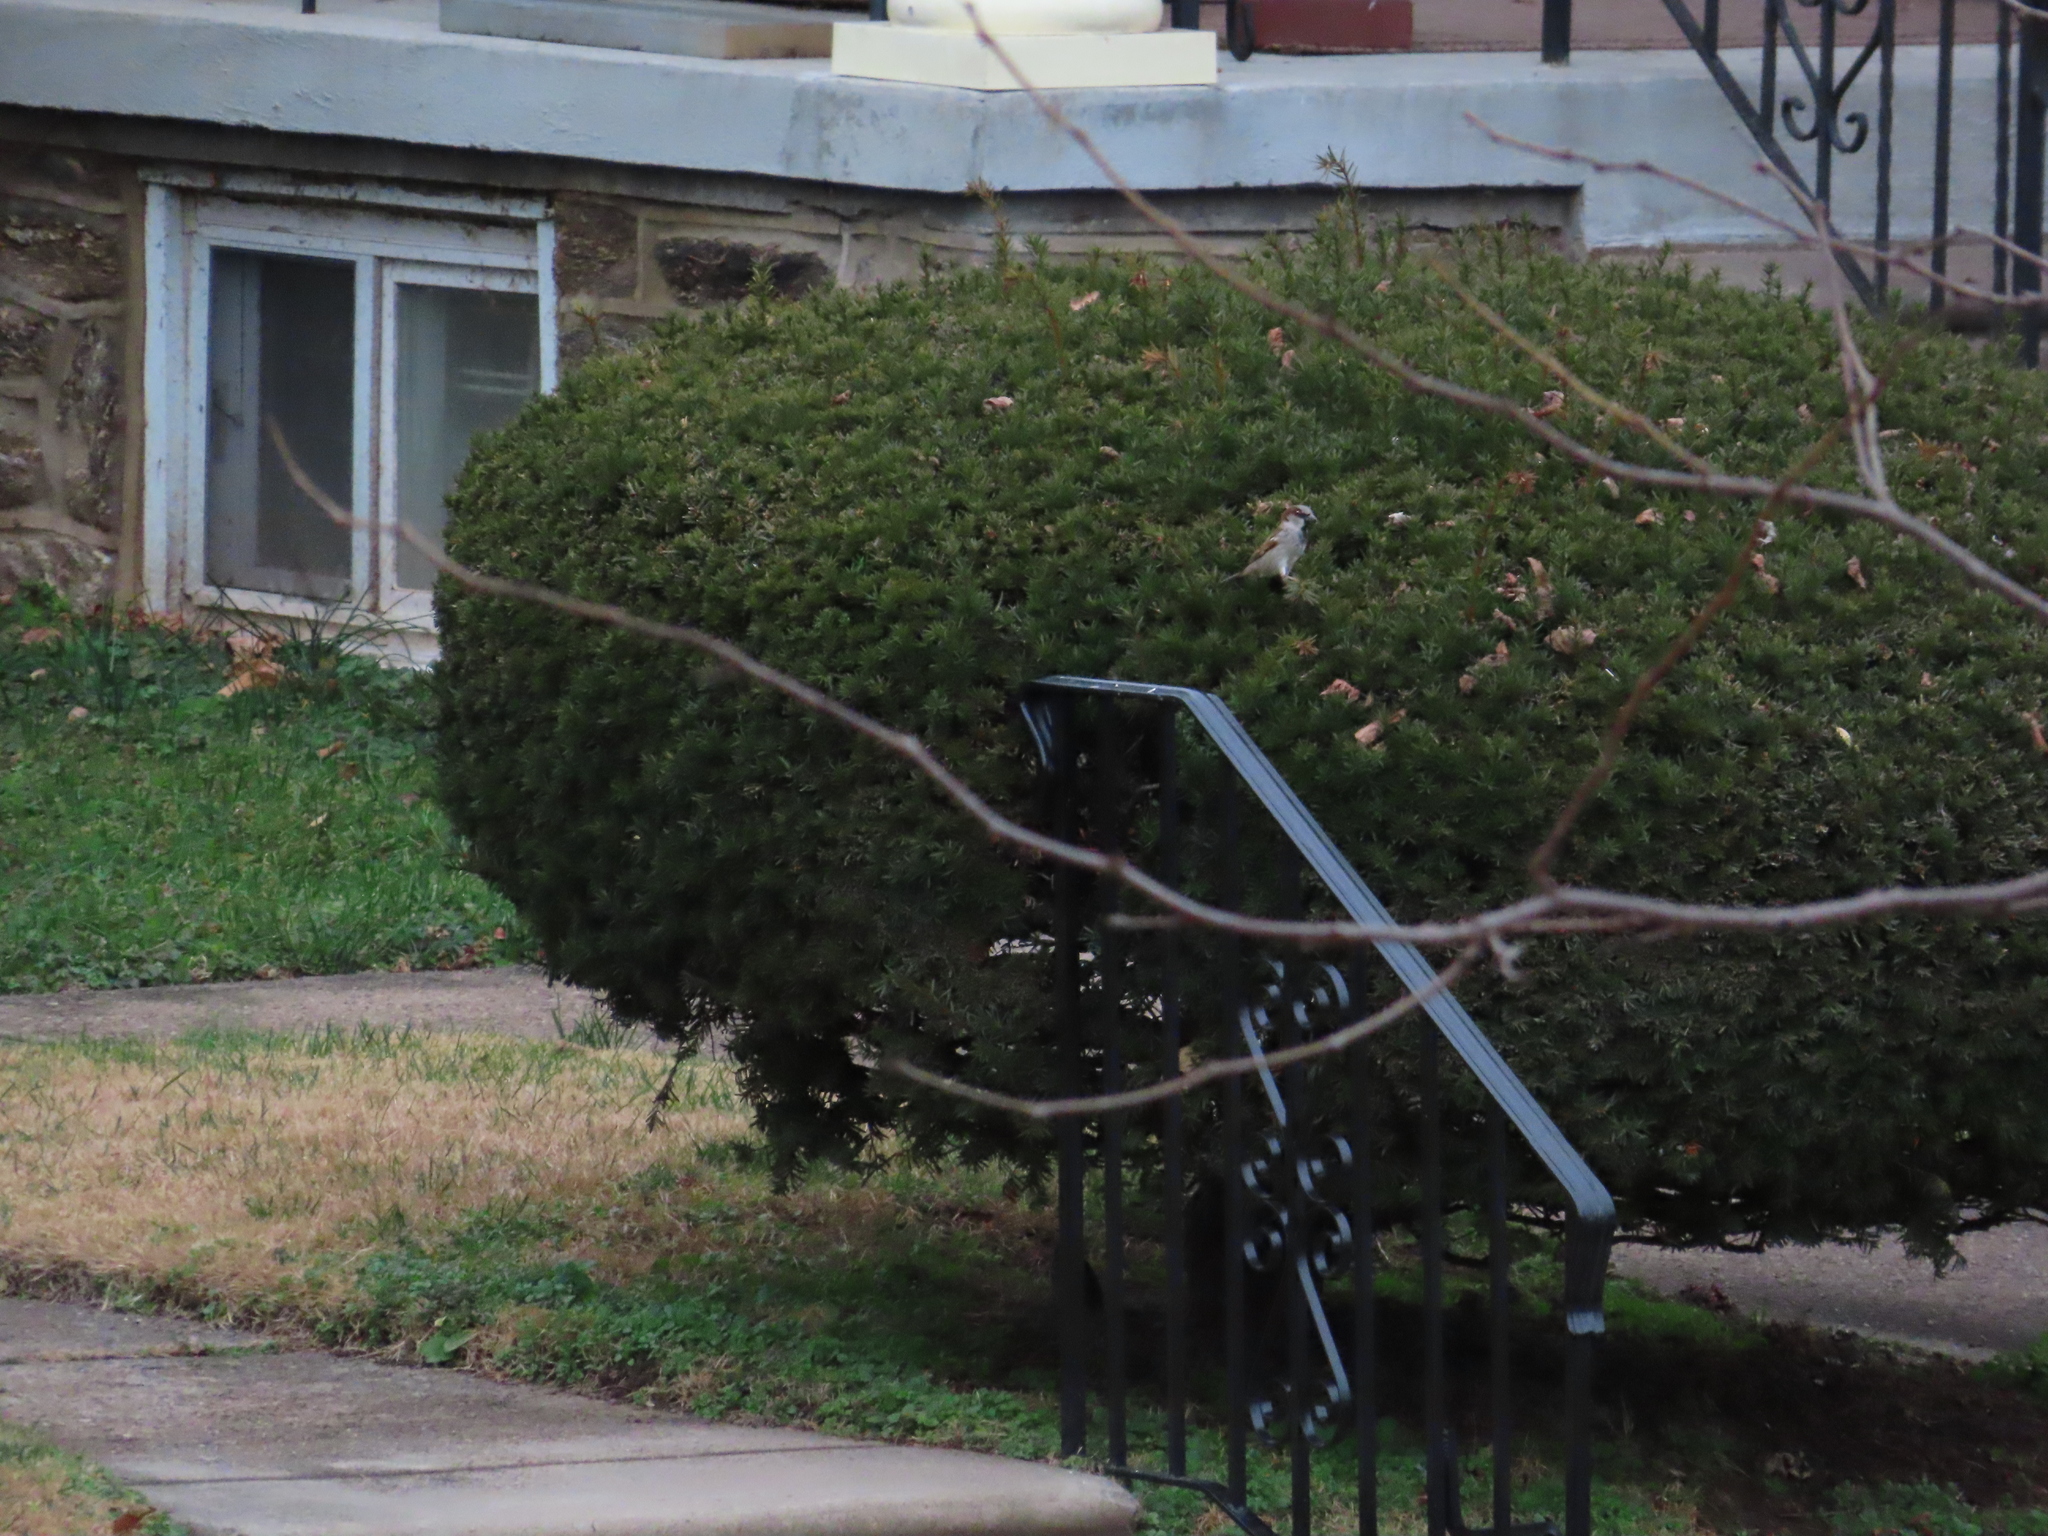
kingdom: Animalia
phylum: Chordata
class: Aves
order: Passeriformes
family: Passeridae
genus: Passer
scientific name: Passer domesticus
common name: House sparrow
